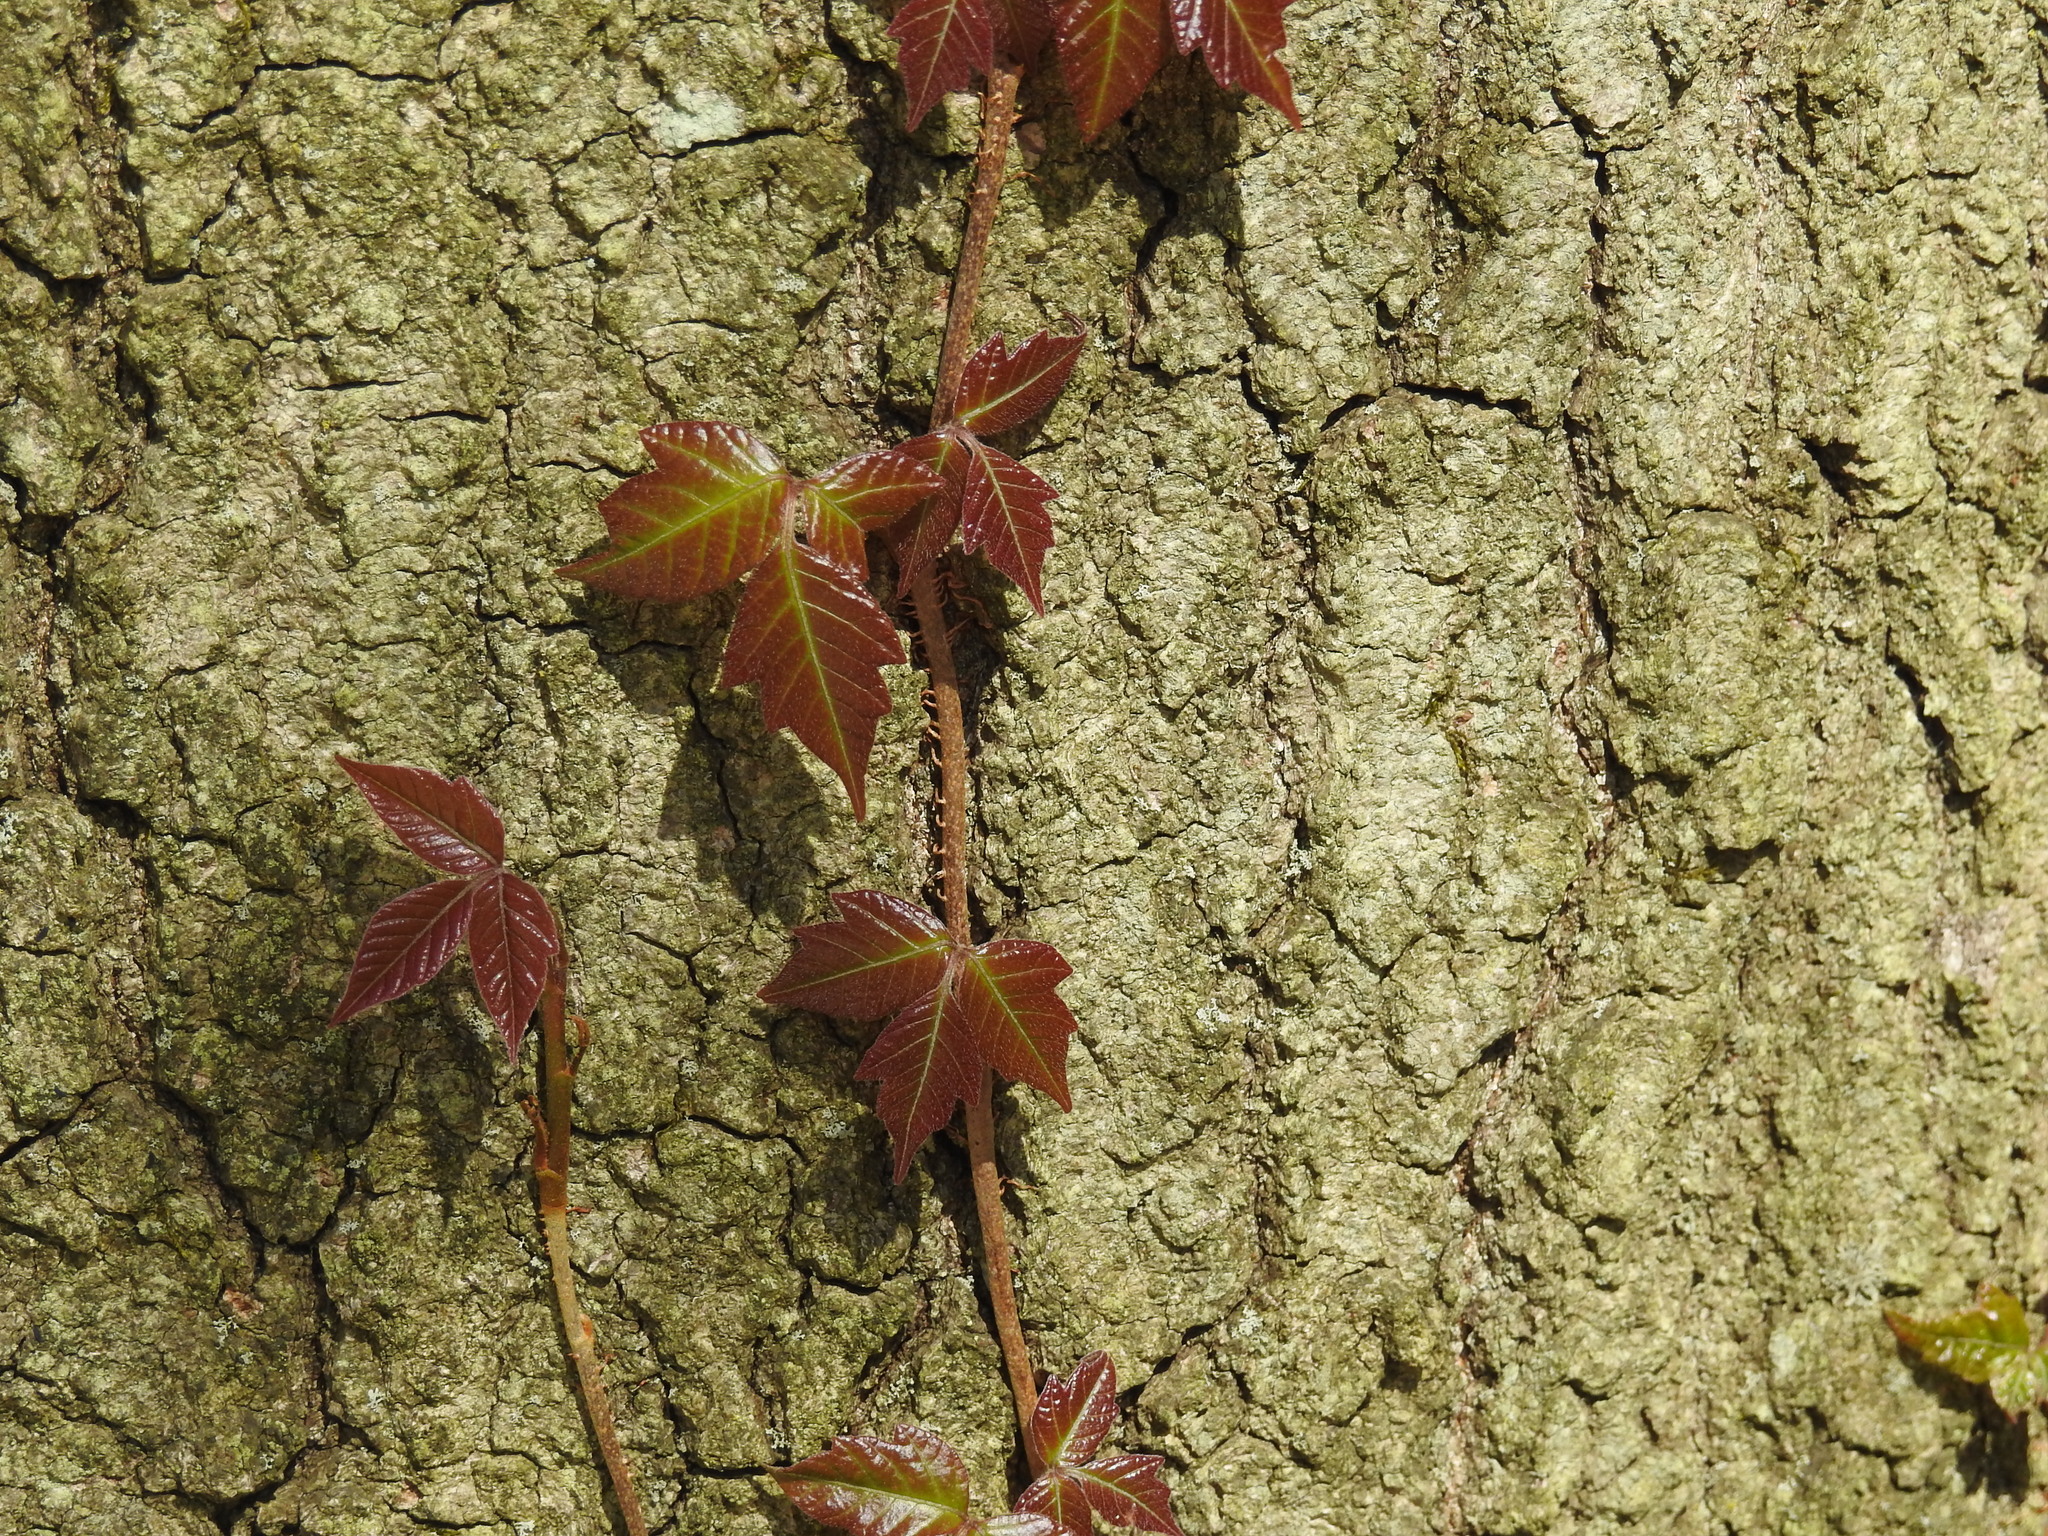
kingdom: Plantae
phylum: Tracheophyta
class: Magnoliopsida
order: Sapindales
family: Anacardiaceae
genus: Toxicodendron
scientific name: Toxicodendron radicans
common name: Poison ivy
